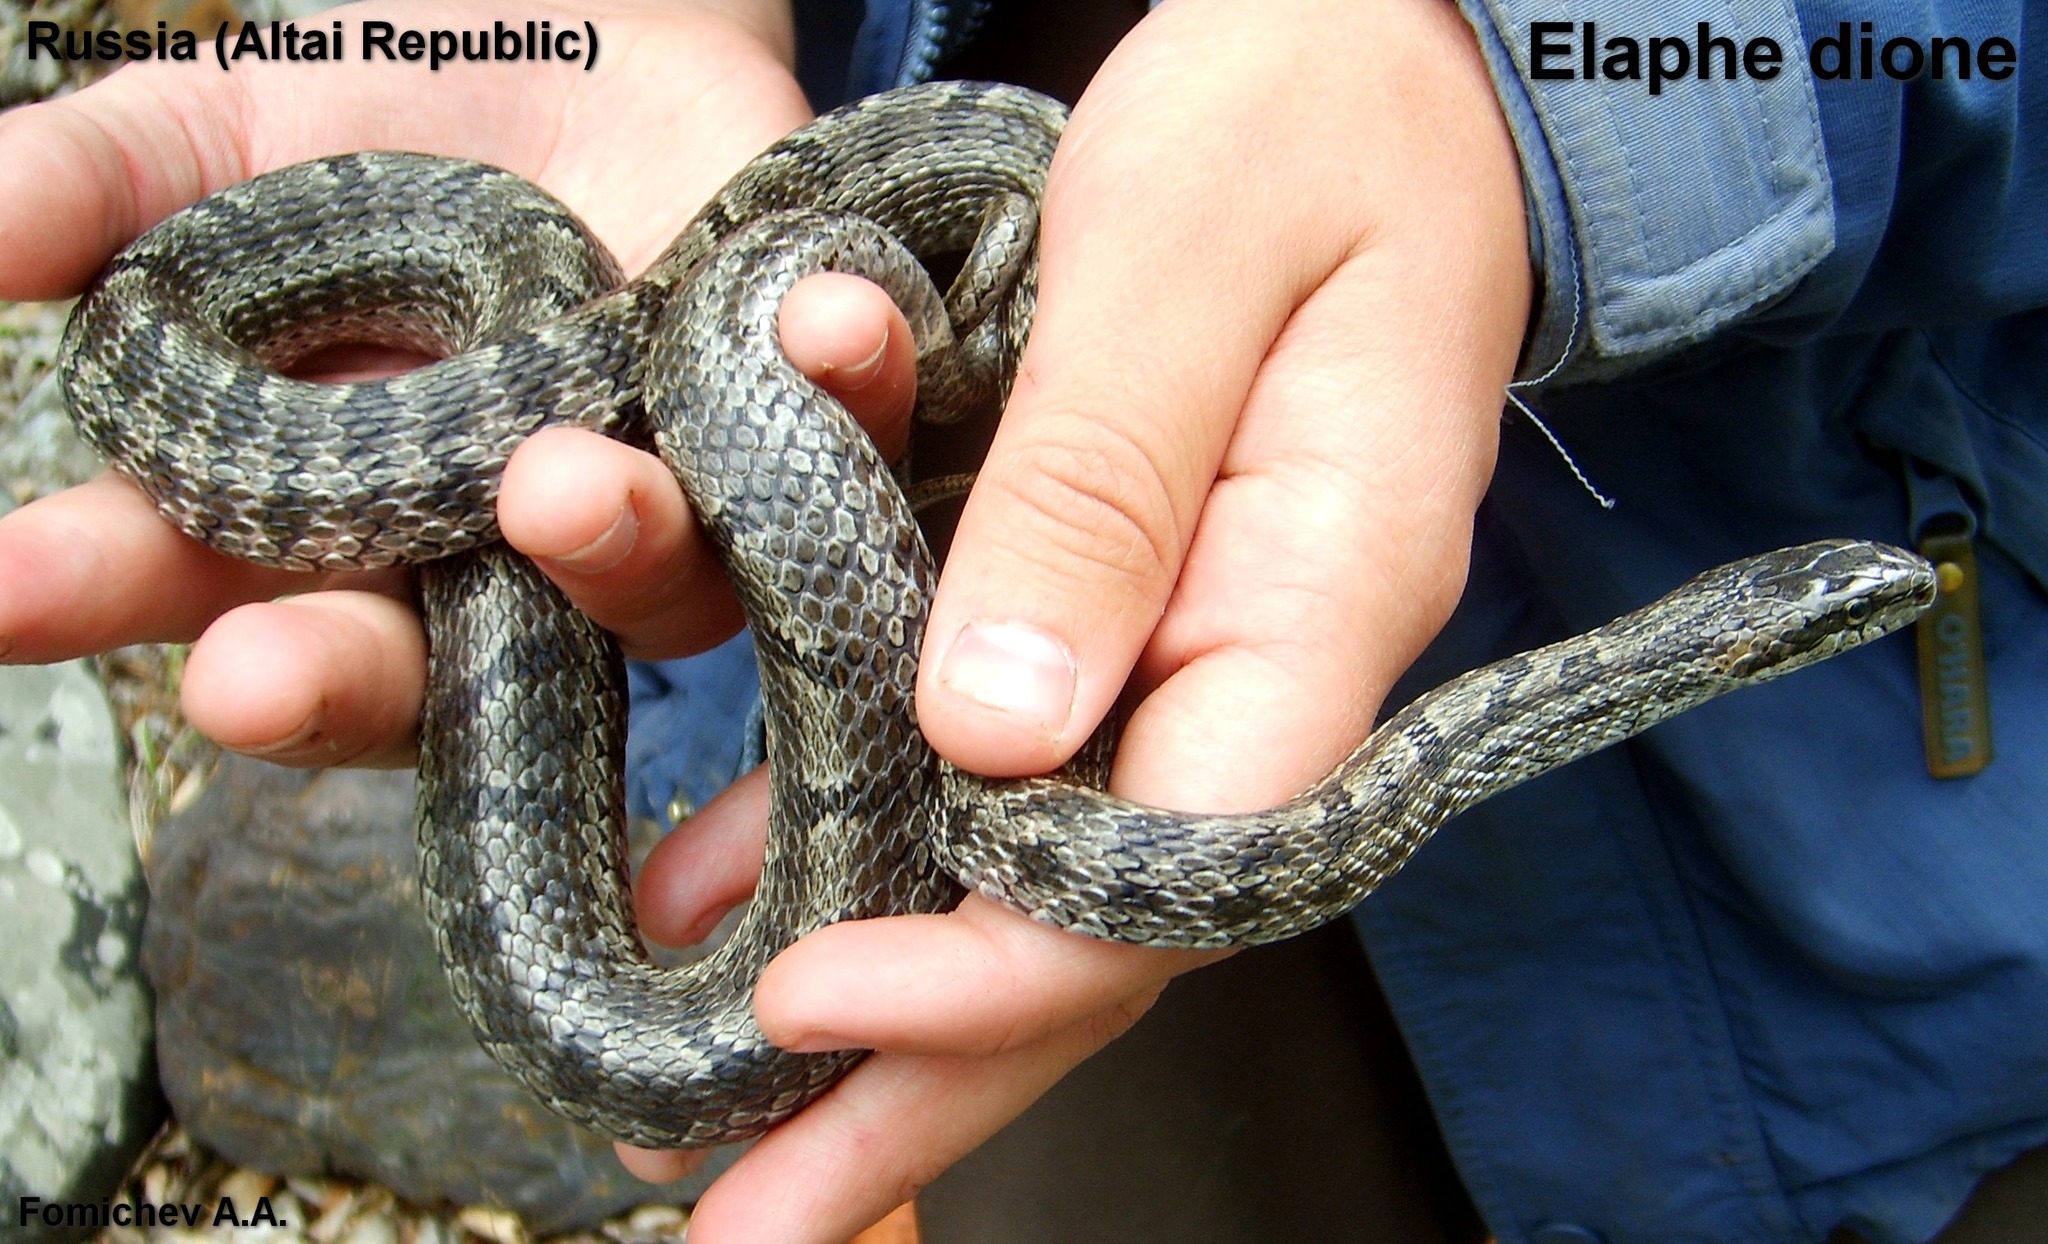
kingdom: Animalia
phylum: Chordata
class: Squamata
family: Colubridae
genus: Elaphe
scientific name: Elaphe dione
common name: Dione ratsnake
